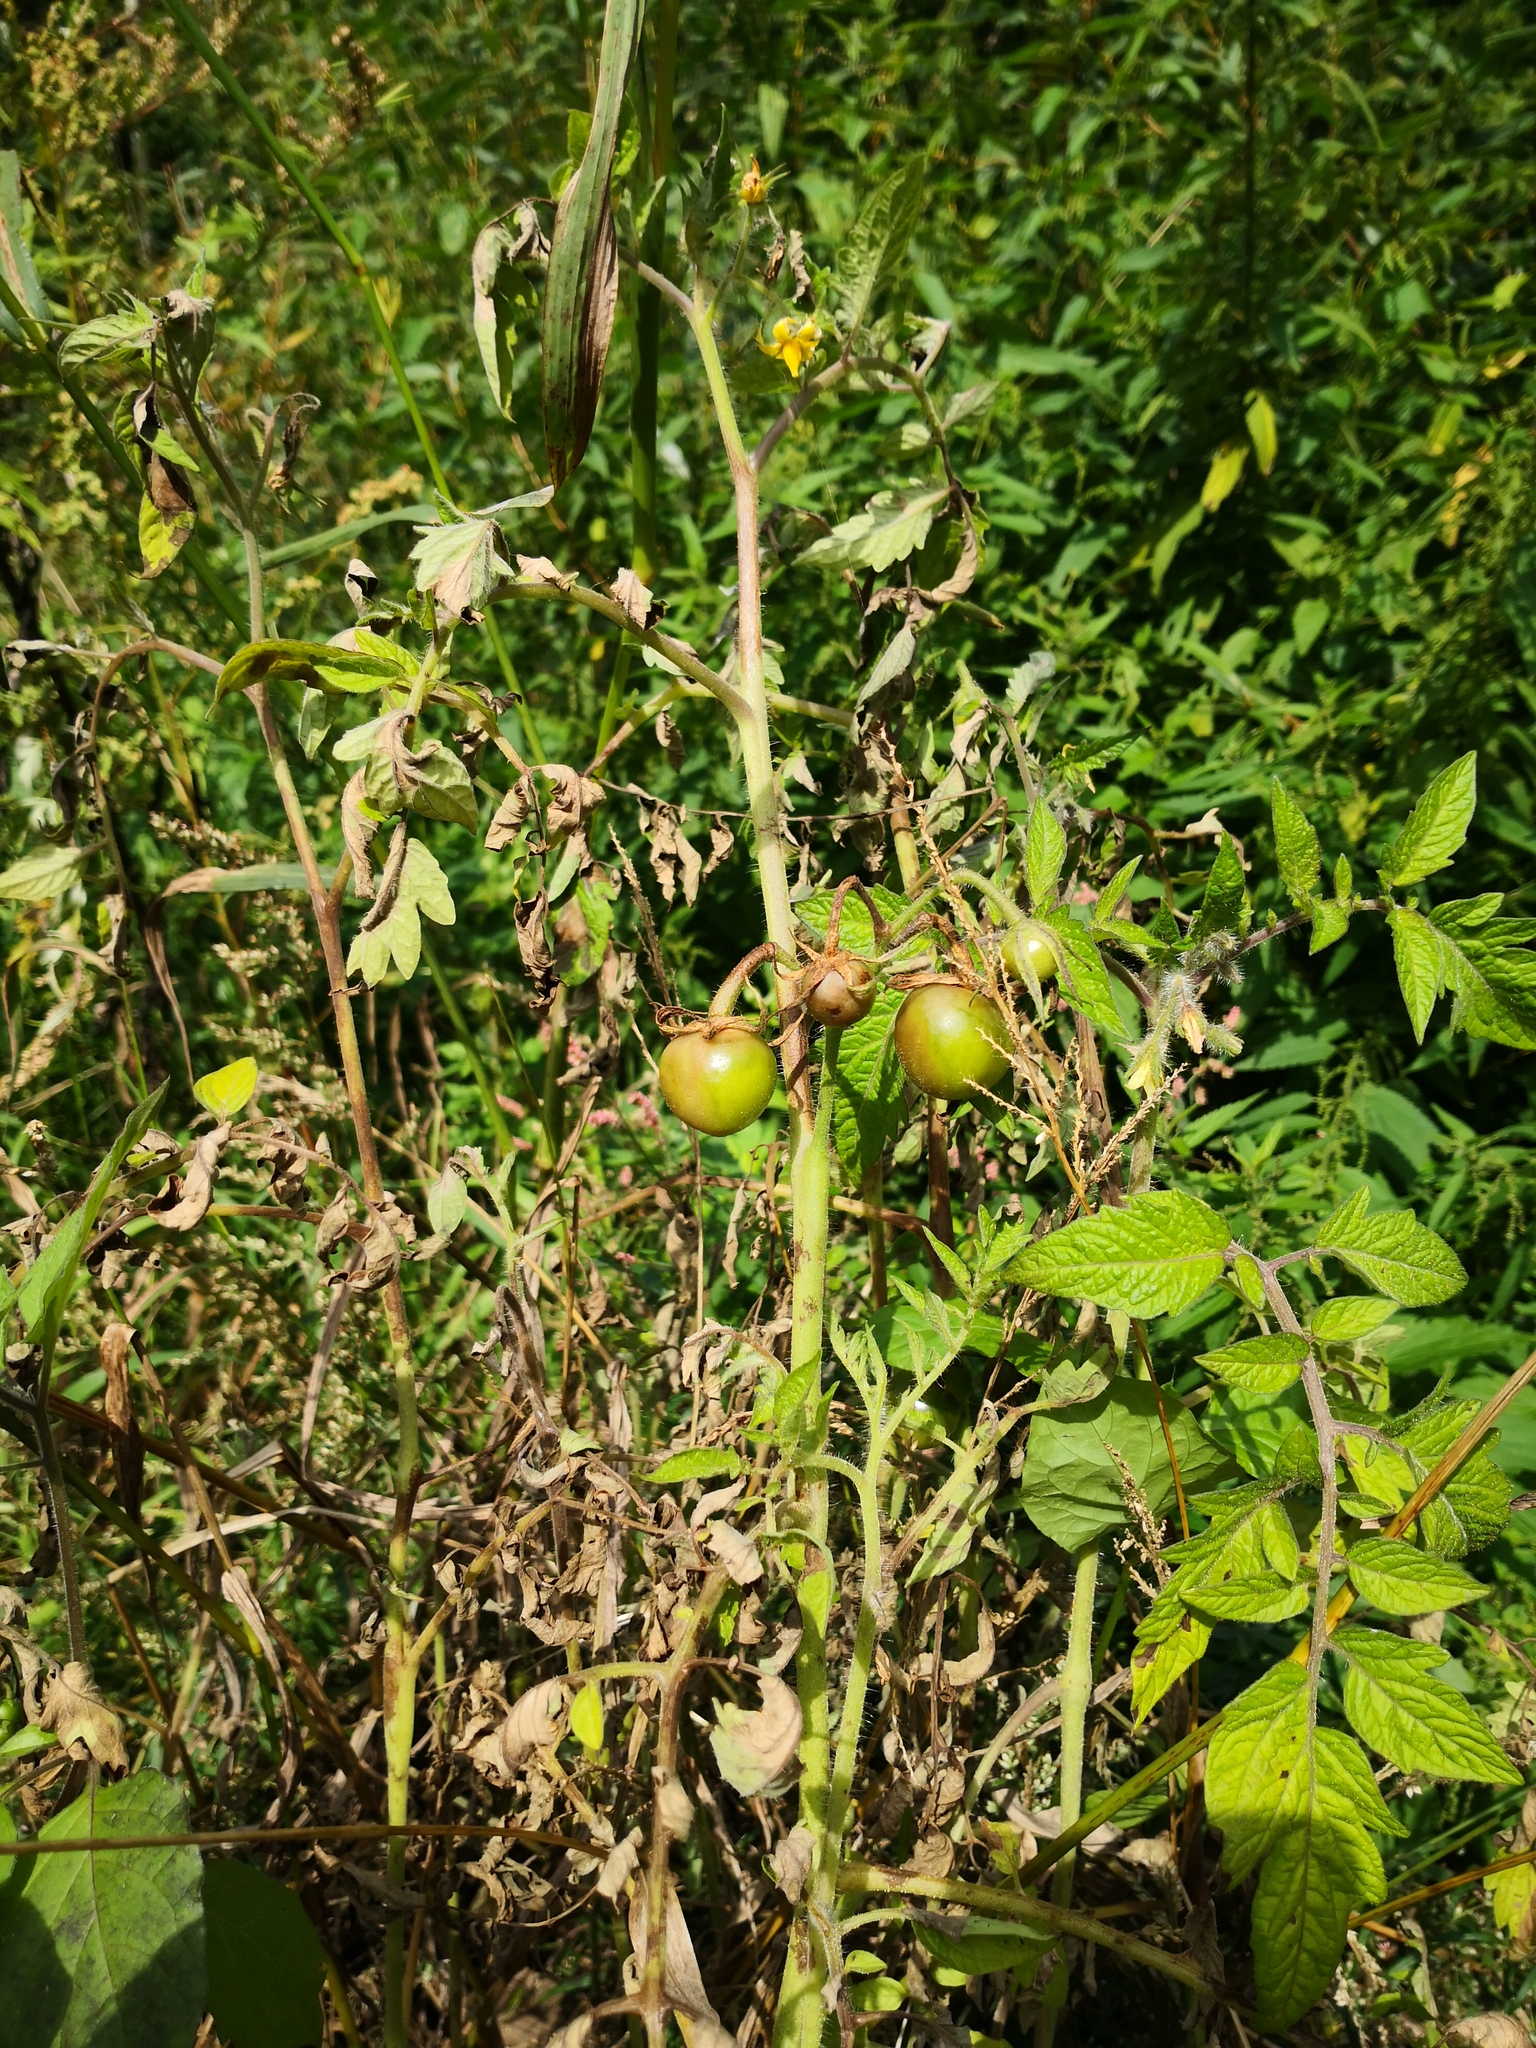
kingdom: Plantae
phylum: Tracheophyta
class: Magnoliopsida
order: Solanales
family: Solanaceae
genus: Solanum
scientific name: Solanum lycopersicum
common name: Garden tomato
